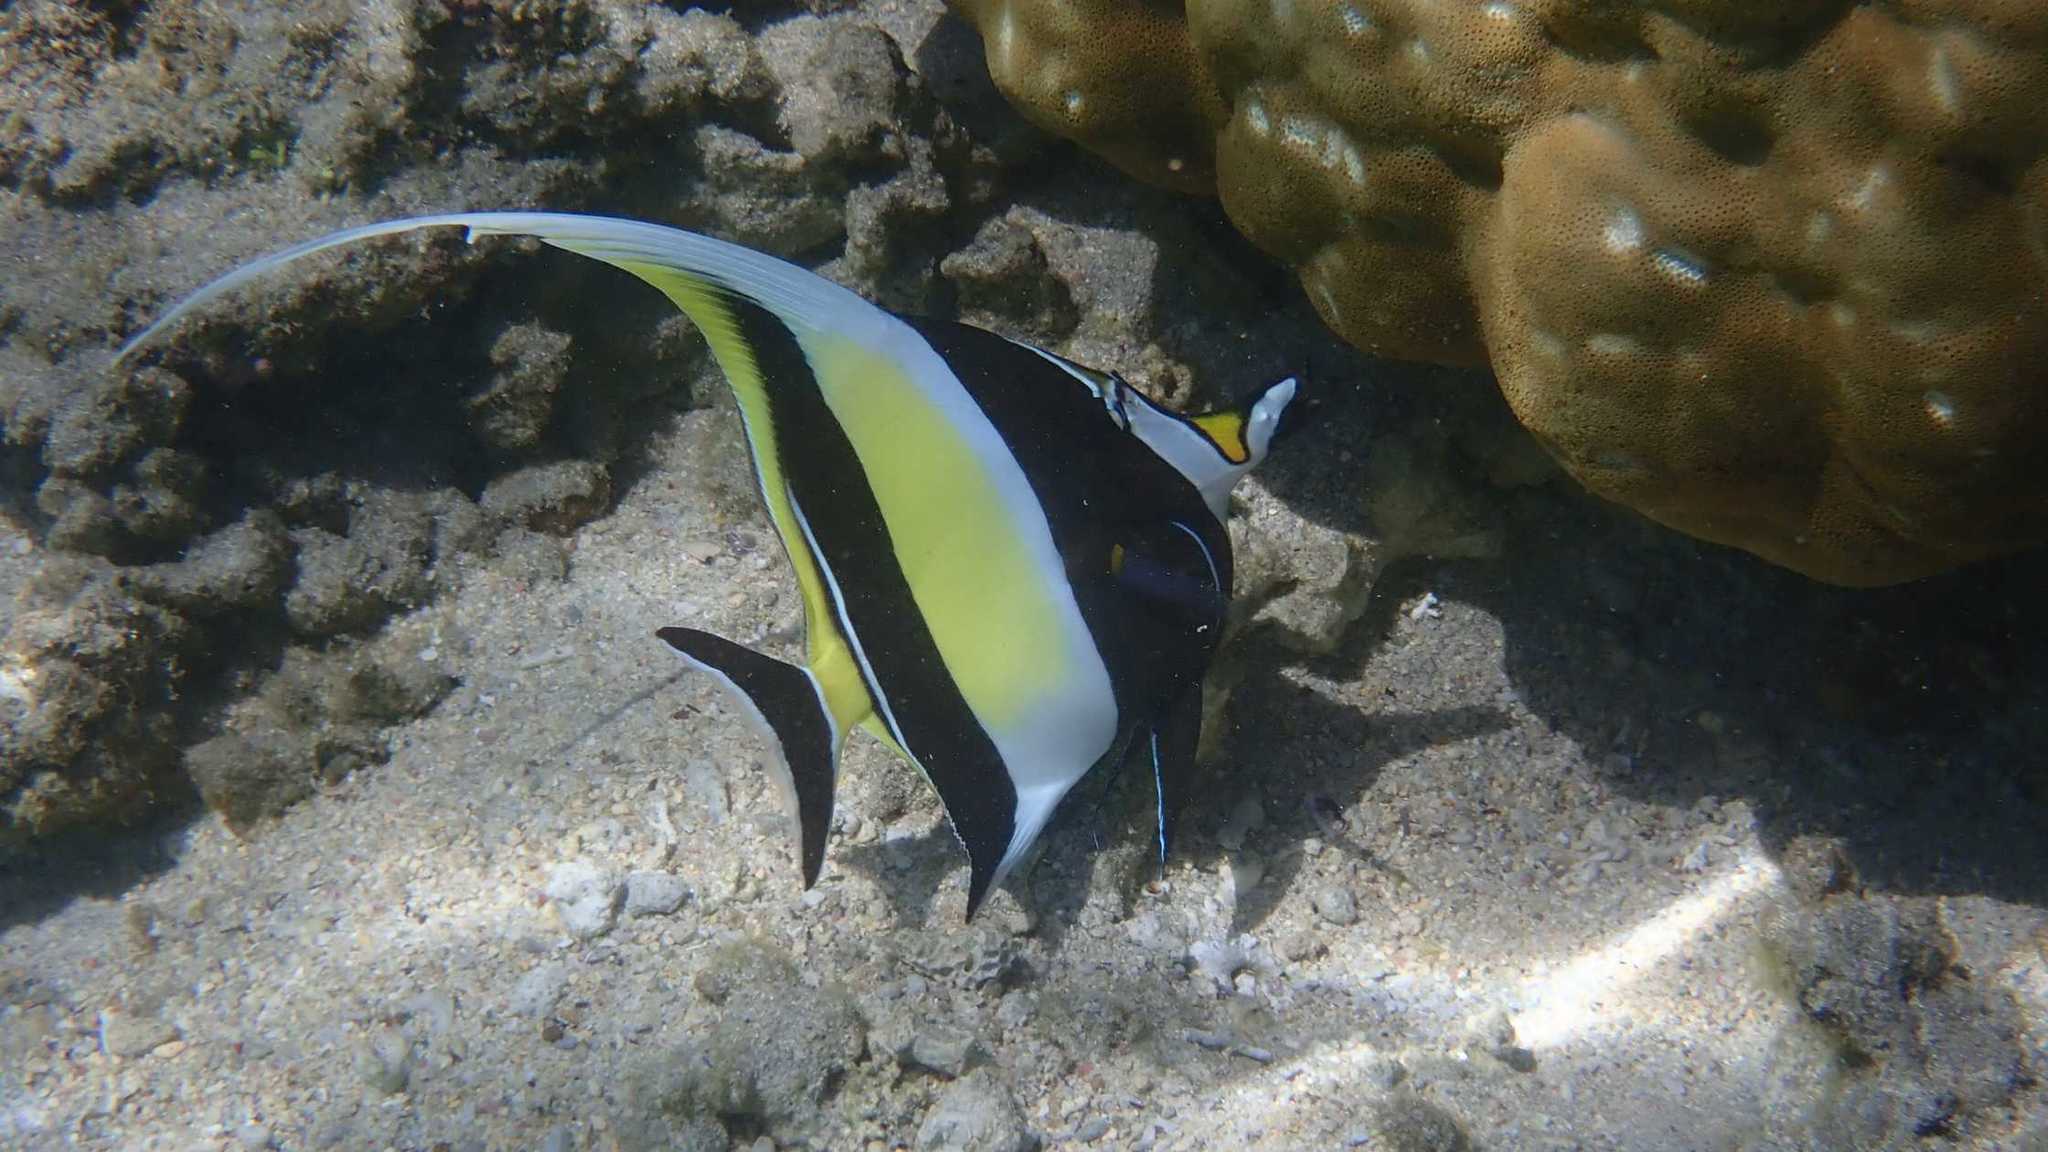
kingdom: Animalia
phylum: Chordata
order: Perciformes
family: Zanclidae
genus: Zanclus
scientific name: Zanclus cornutus
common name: Moorish idol
